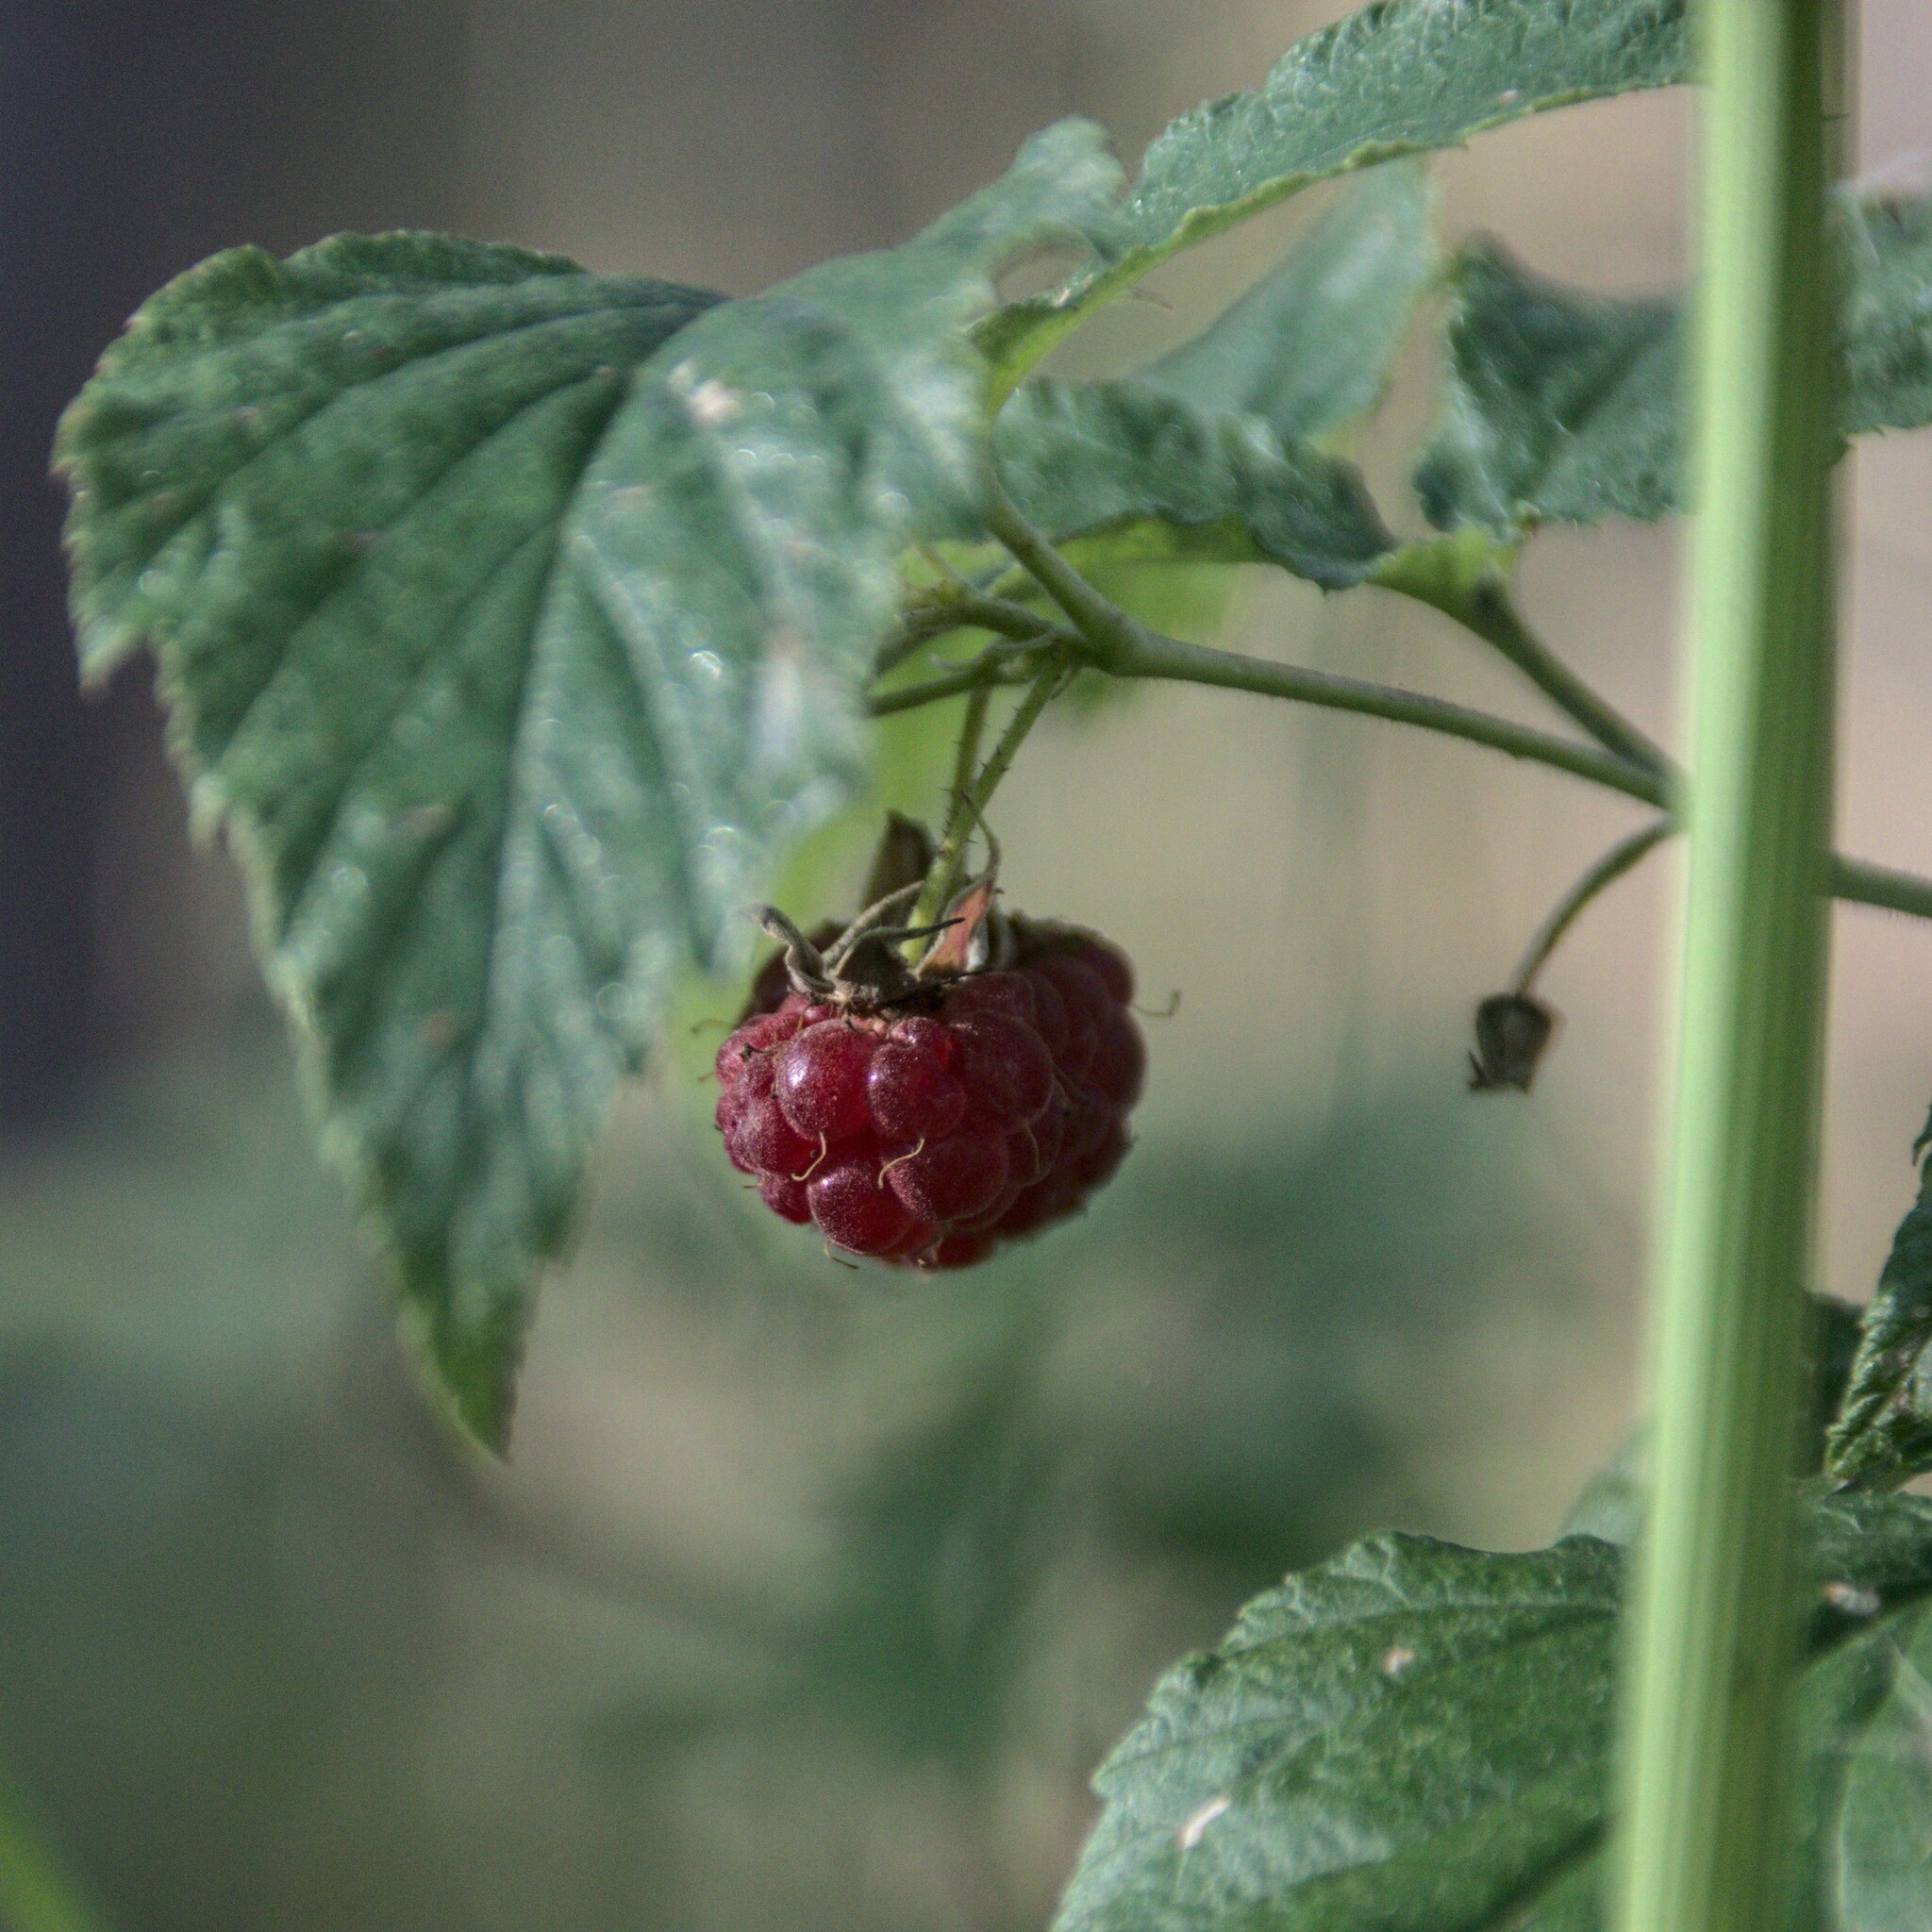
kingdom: Plantae
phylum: Tracheophyta
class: Magnoliopsida
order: Rosales
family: Rosaceae
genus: Rubus
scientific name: Rubus idaeus
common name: Raspberry
